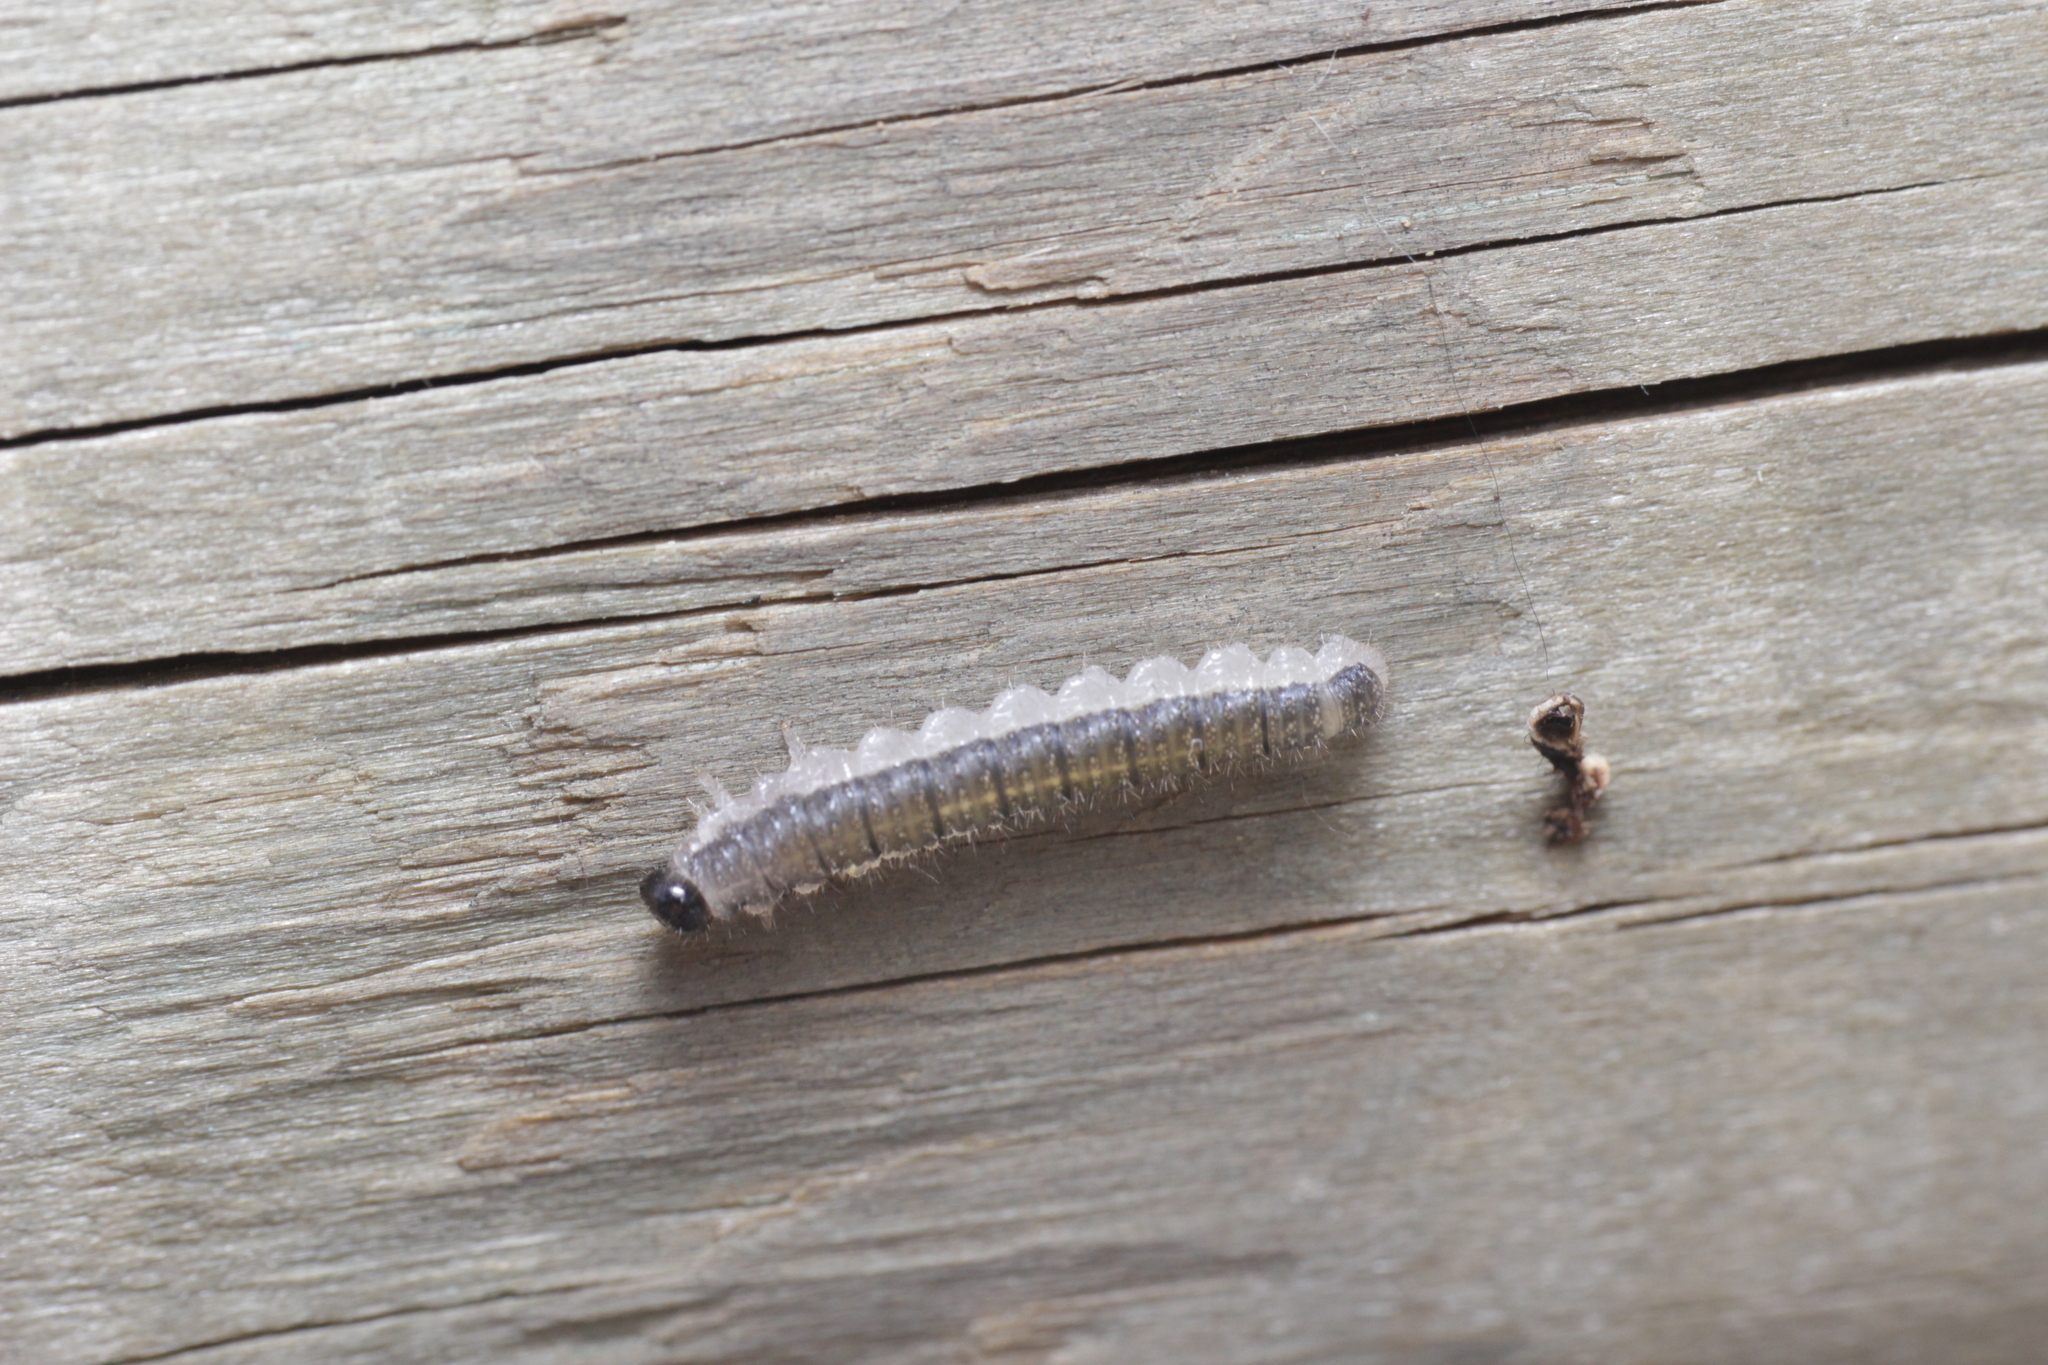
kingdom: Animalia
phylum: Arthropoda
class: Insecta
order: Hymenoptera
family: Tenthredinidae
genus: Cladius
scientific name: Cladius brullei
